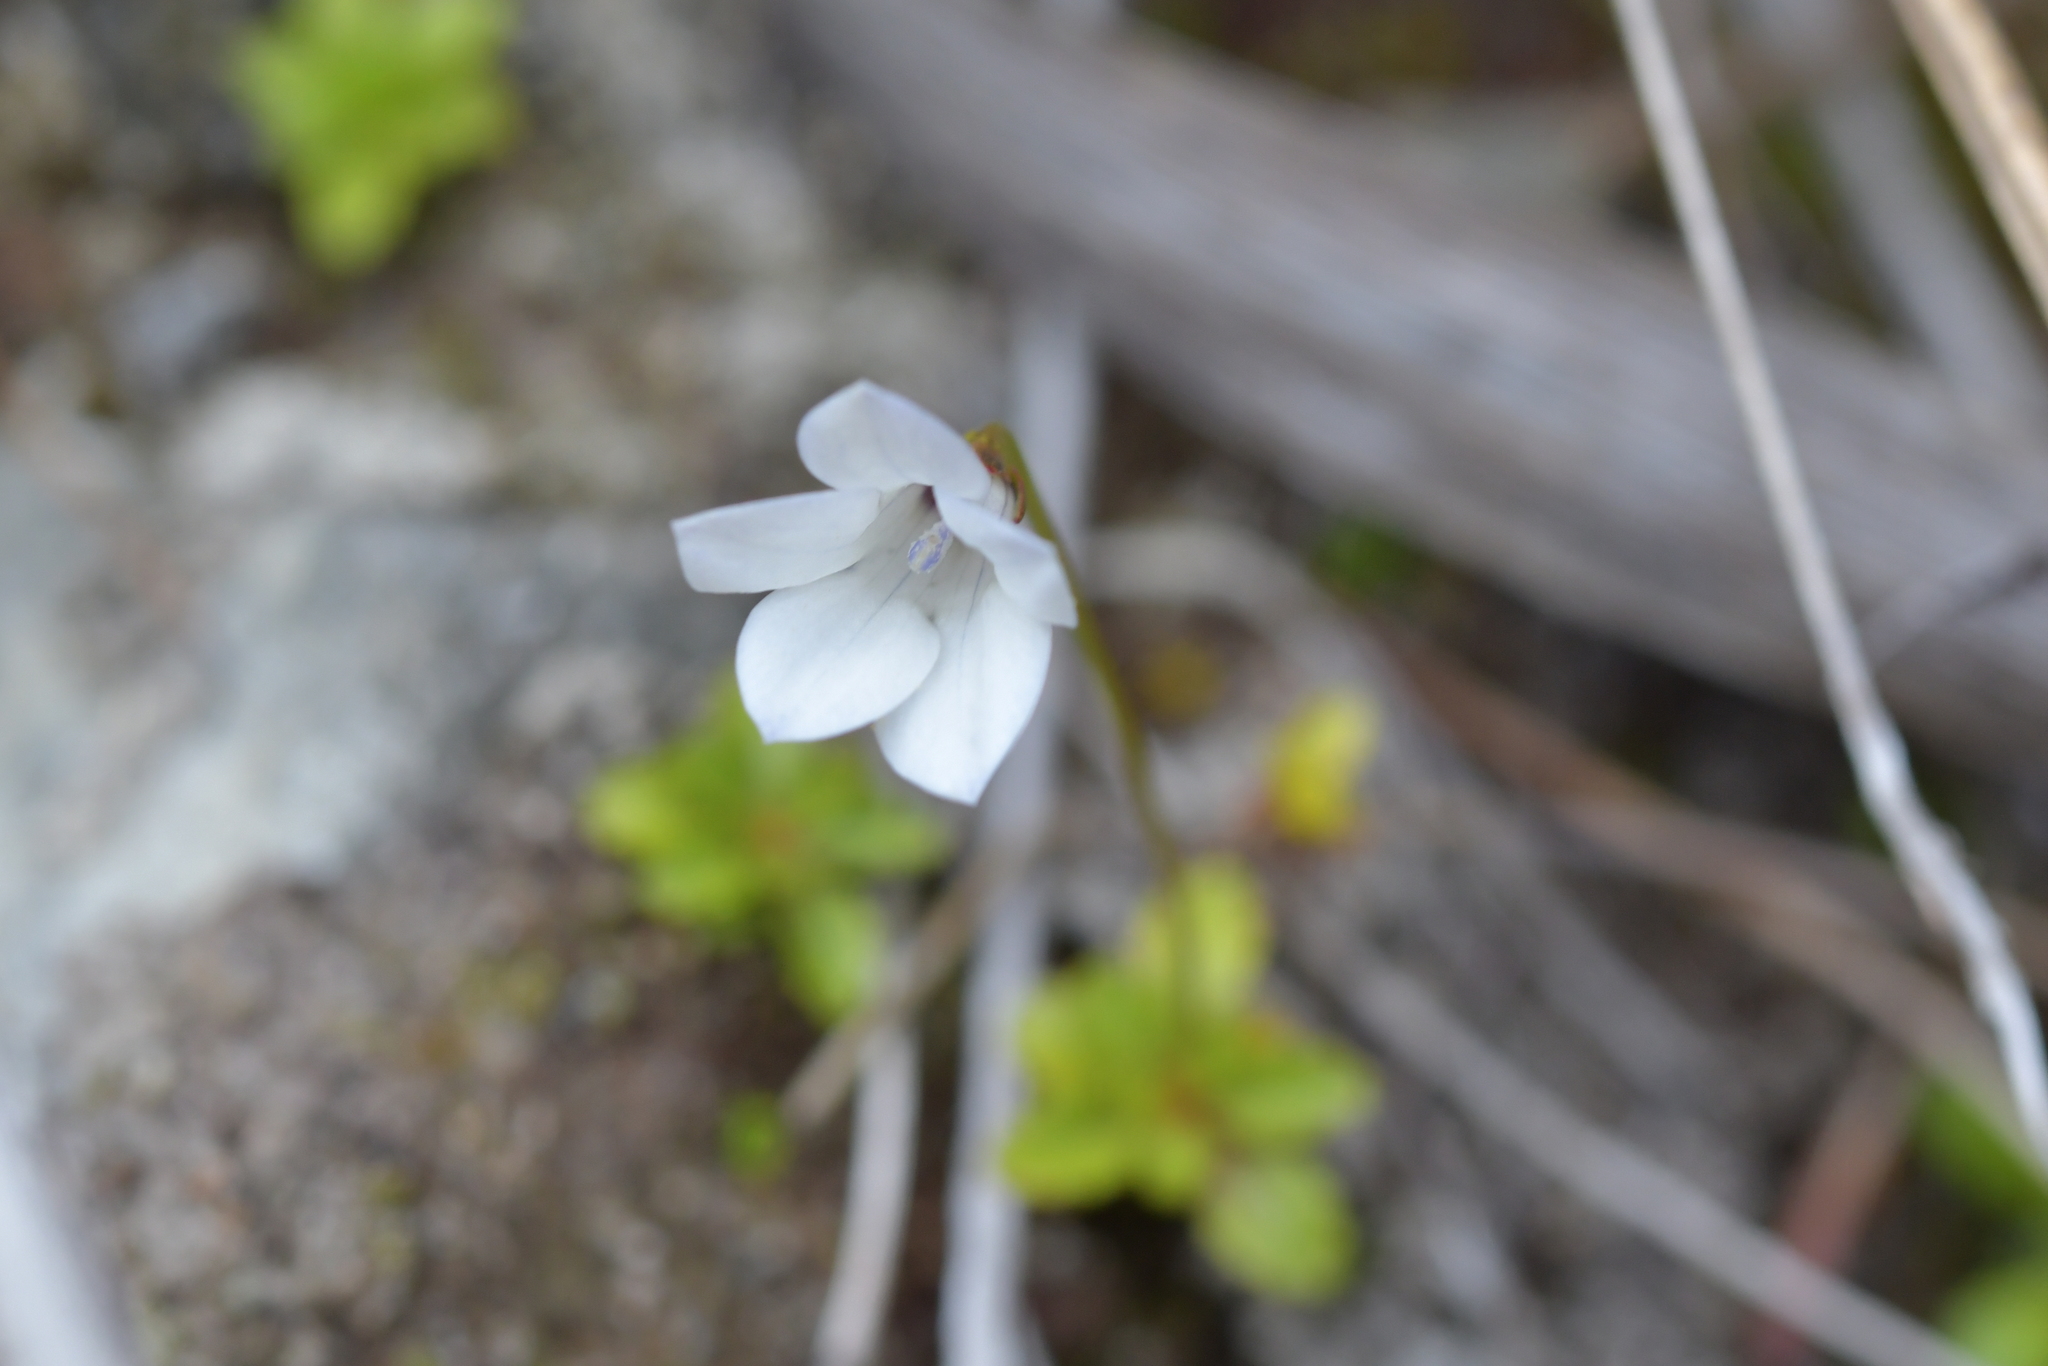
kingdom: Plantae
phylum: Tracheophyta
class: Magnoliopsida
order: Asterales
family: Campanulaceae
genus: Wahlenbergia
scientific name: Wahlenbergia albomarginata
